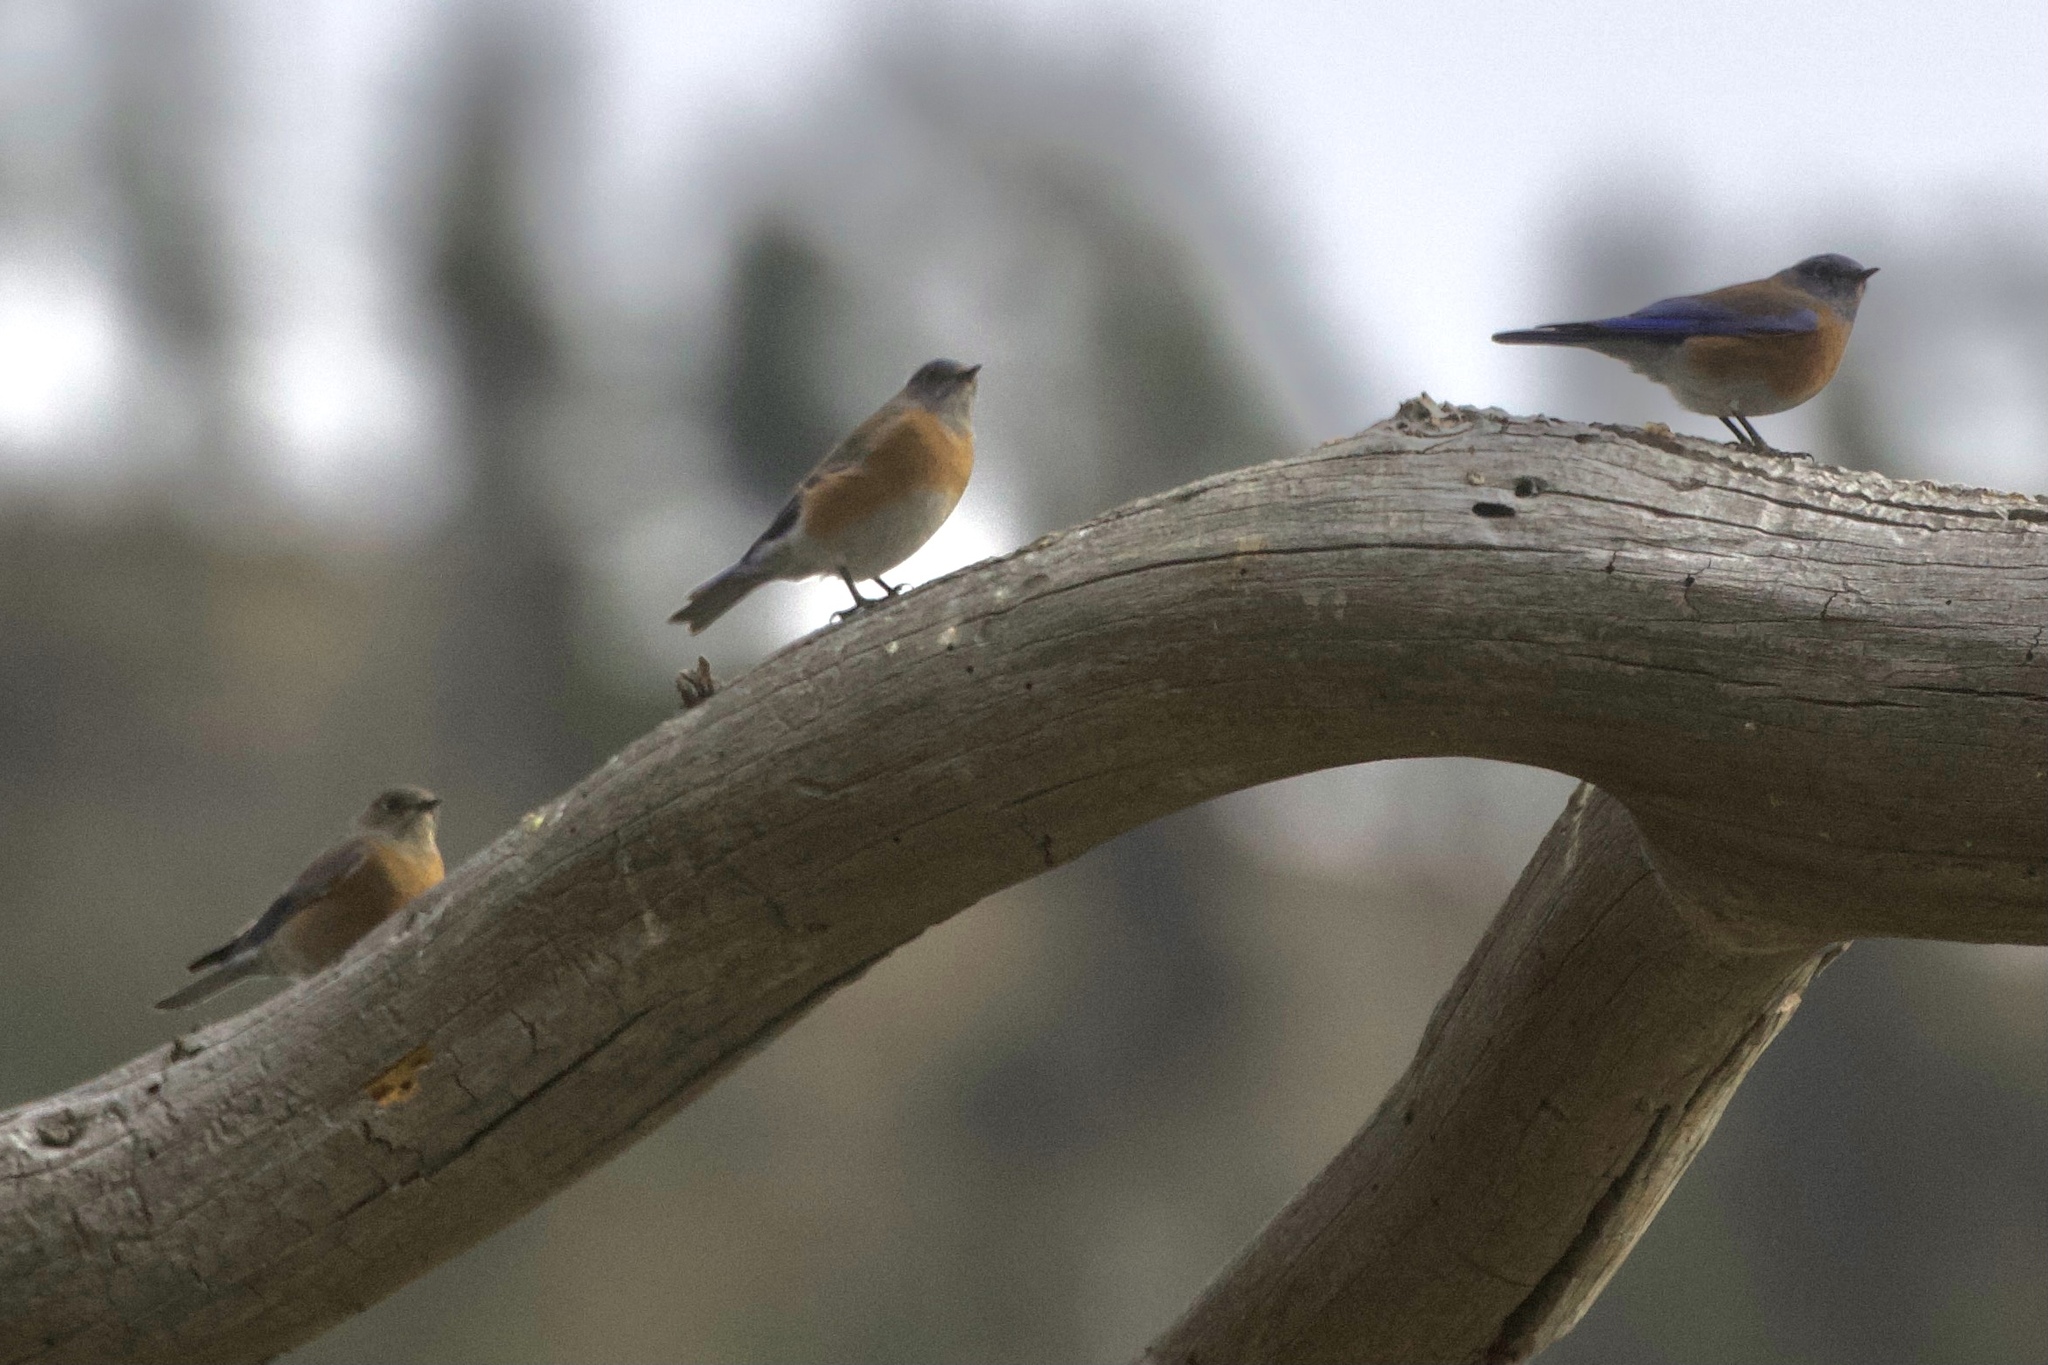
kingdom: Animalia
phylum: Chordata
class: Aves
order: Passeriformes
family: Turdidae
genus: Sialia
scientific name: Sialia mexicana
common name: Western bluebird
